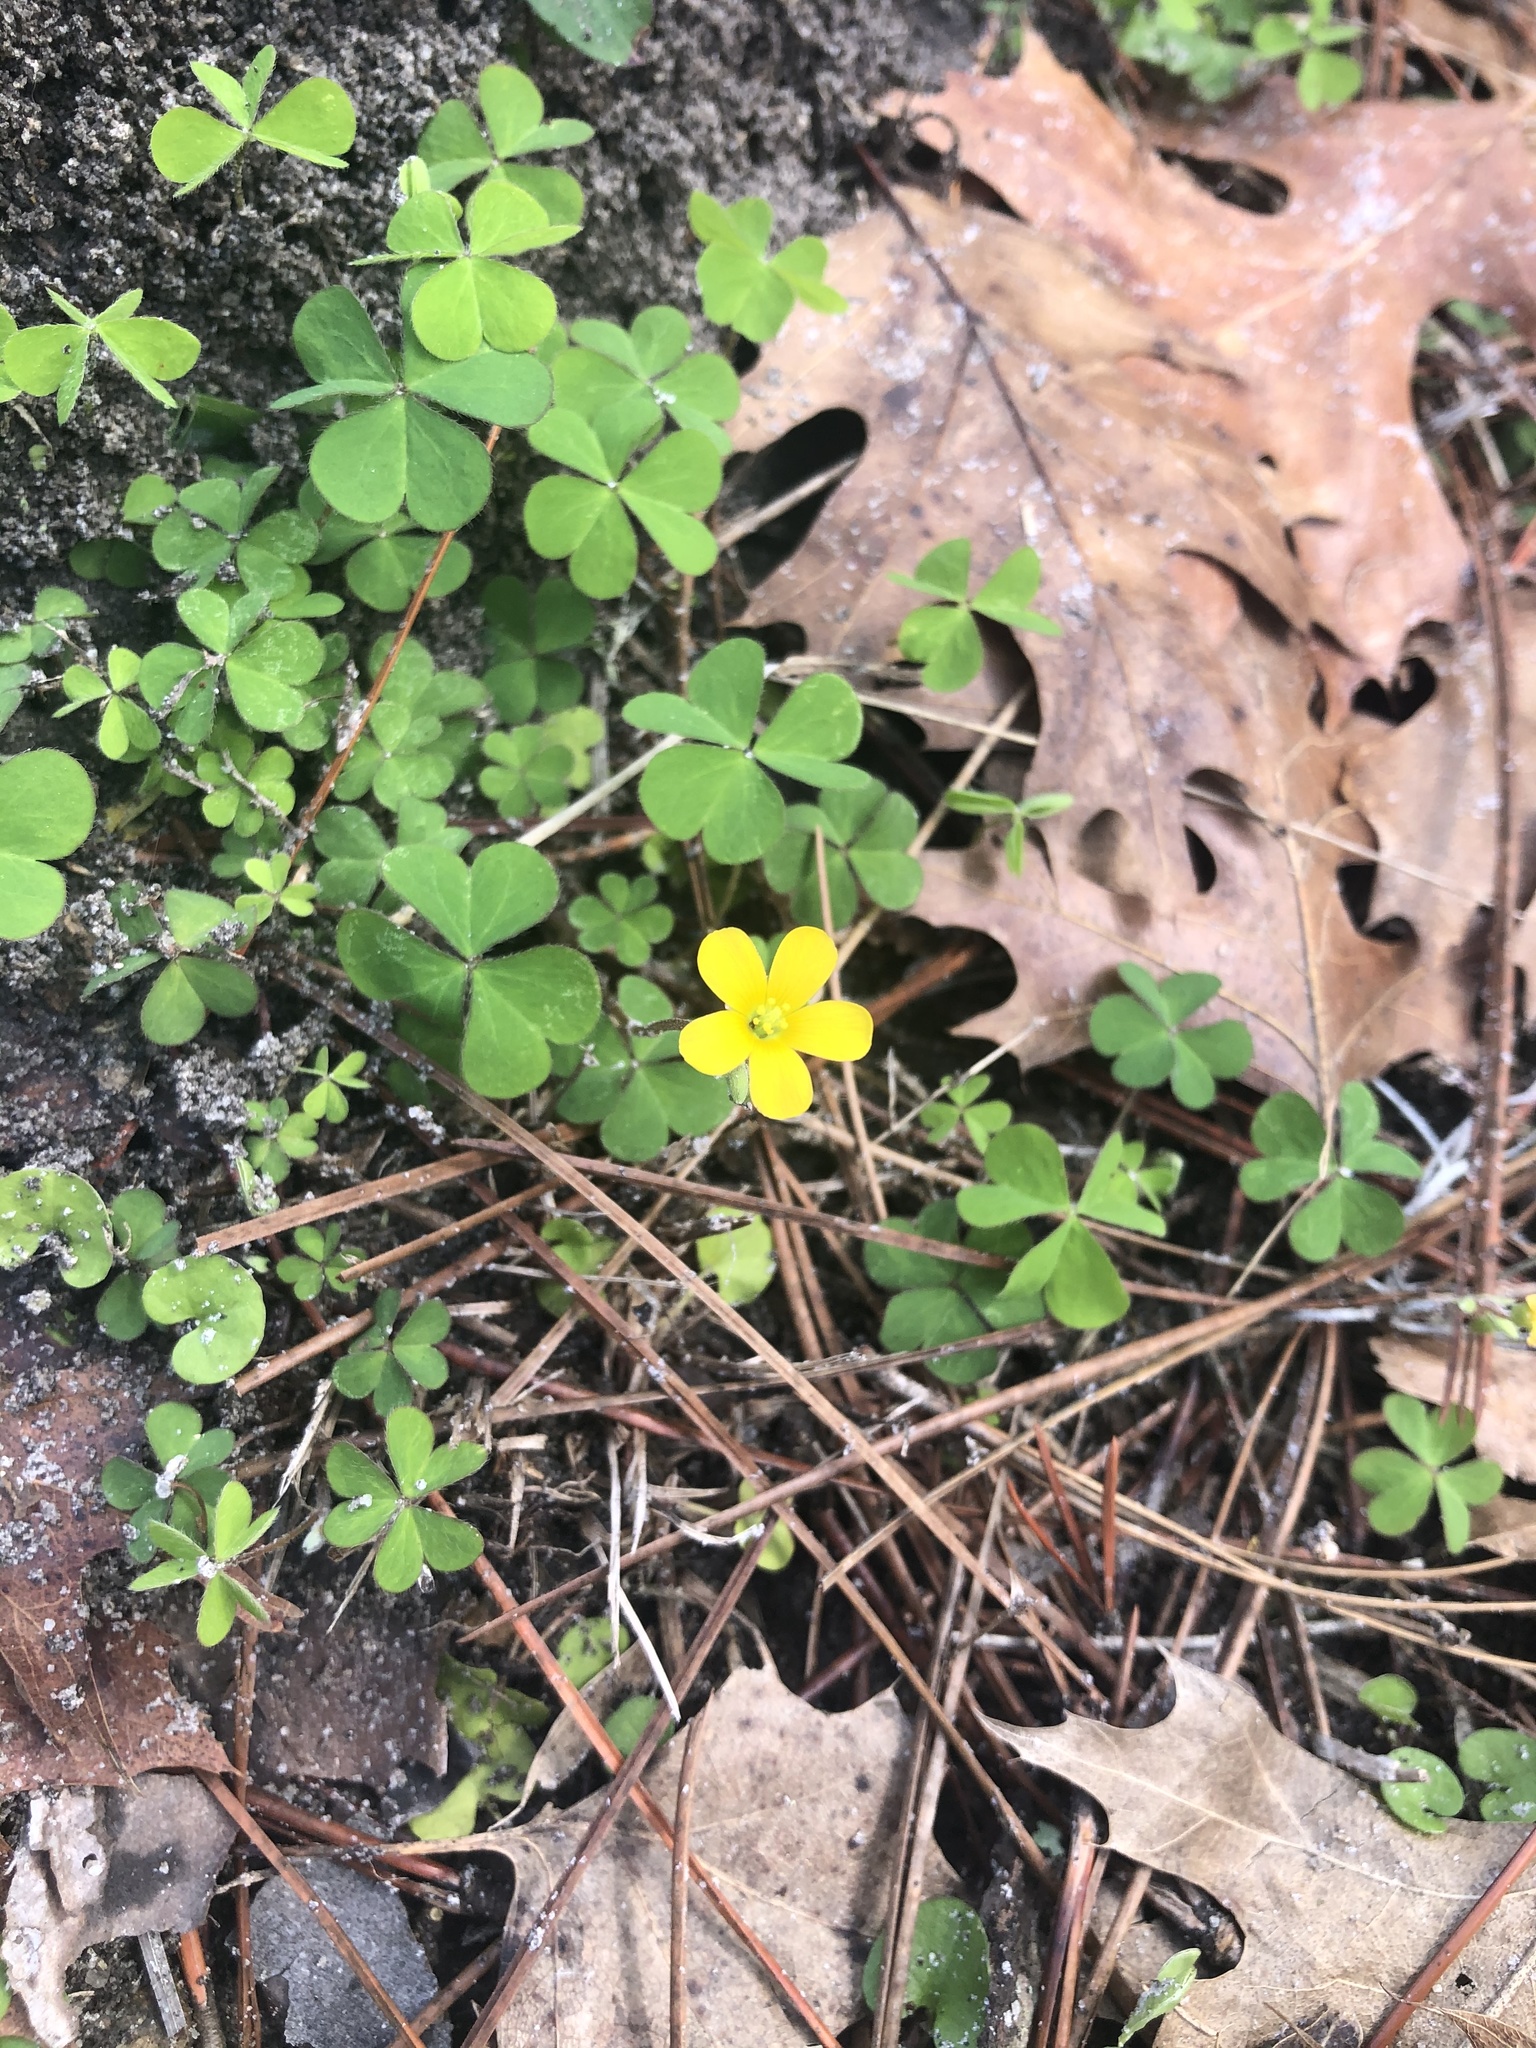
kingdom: Plantae
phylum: Tracheophyta
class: Magnoliopsida
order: Oxalidales
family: Oxalidaceae
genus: Oxalis
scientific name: Oxalis corniculata
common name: Procumbent yellow-sorrel
